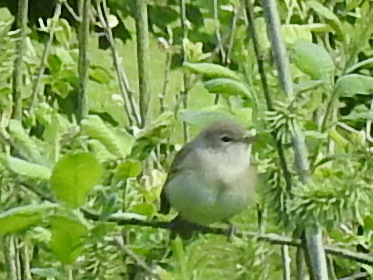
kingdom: Animalia
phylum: Chordata
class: Aves
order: Passeriformes
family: Sylviidae
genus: Sylvia
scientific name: Sylvia borin
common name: Garden warbler
